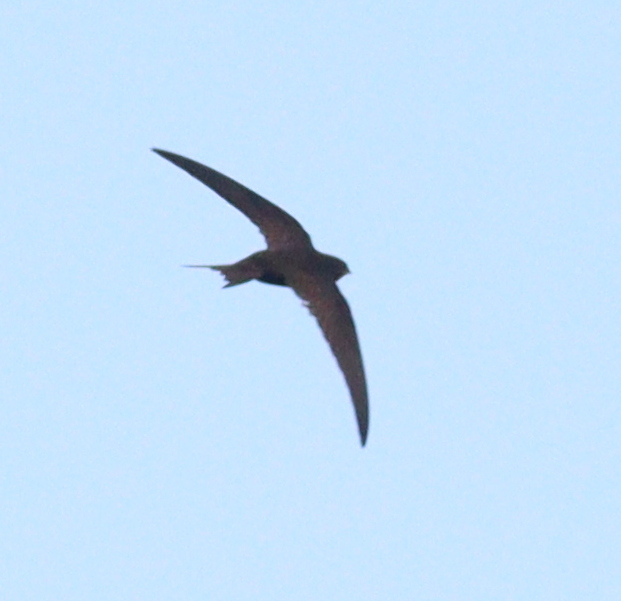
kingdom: Animalia
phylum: Chordata
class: Aves
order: Apodiformes
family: Apodidae
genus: Apus
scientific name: Apus apus
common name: Common swift
